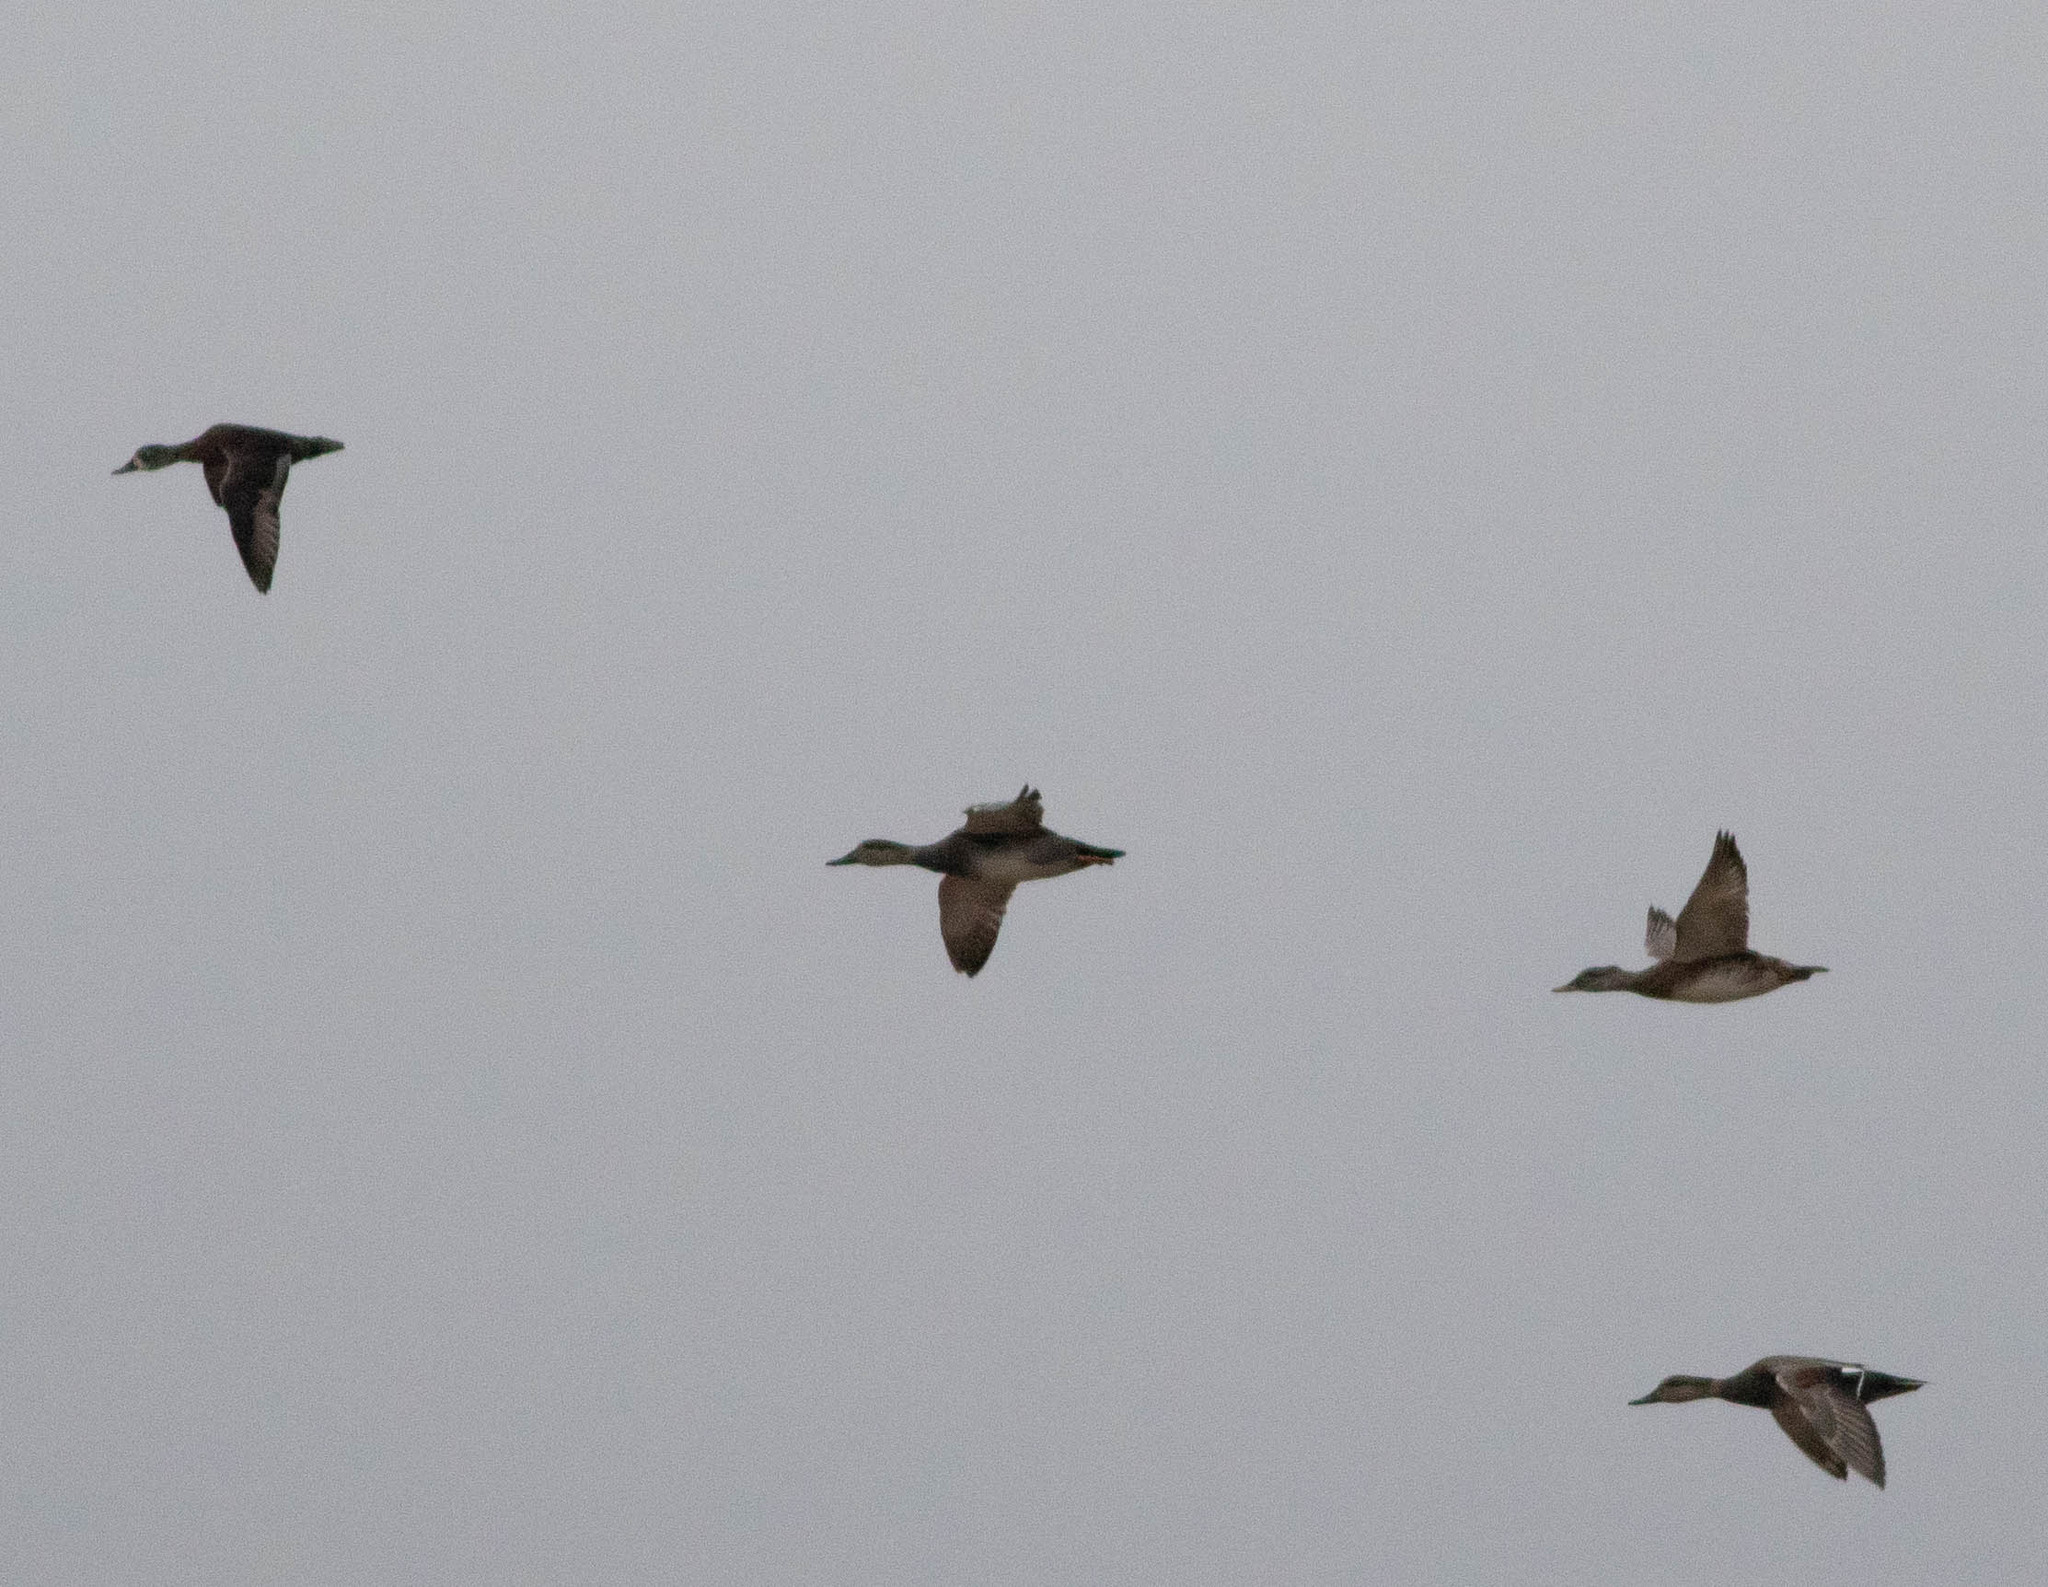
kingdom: Animalia
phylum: Chordata
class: Aves
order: Anseriformes
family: Anatidae
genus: Mareca
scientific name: Mareca americana
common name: American wigeon
